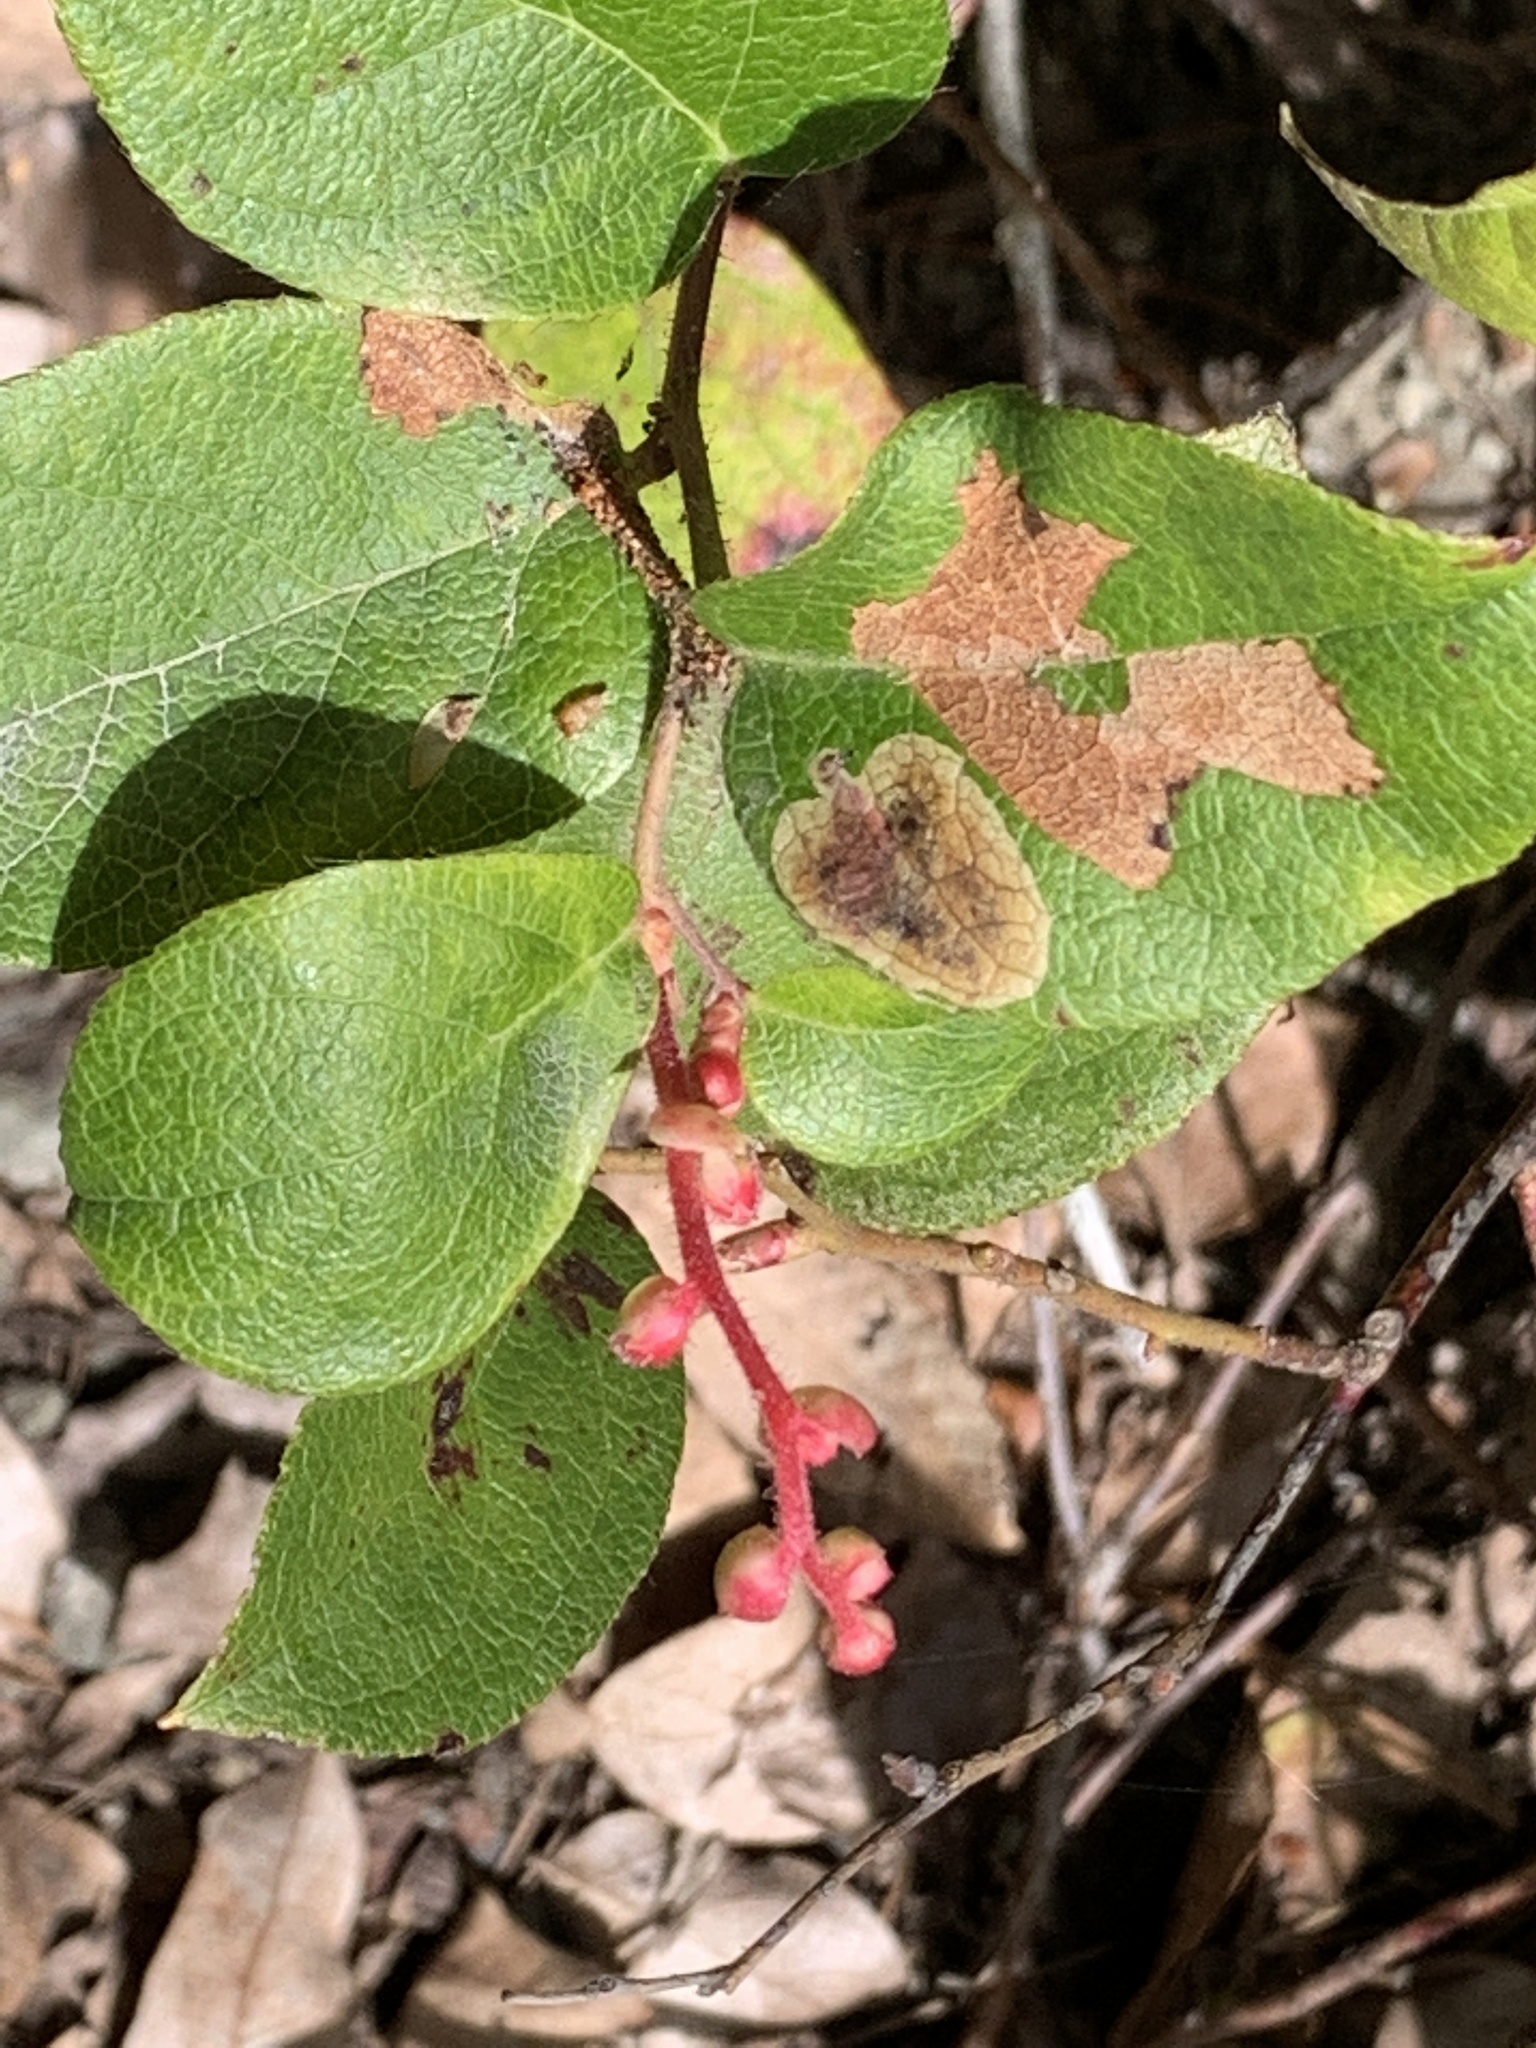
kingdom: Plantae
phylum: Tracheophyta
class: Magnoliopsida
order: Ericales
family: Ericaceae
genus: Gaultheria
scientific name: Gaultheria shallon
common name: Shallon
